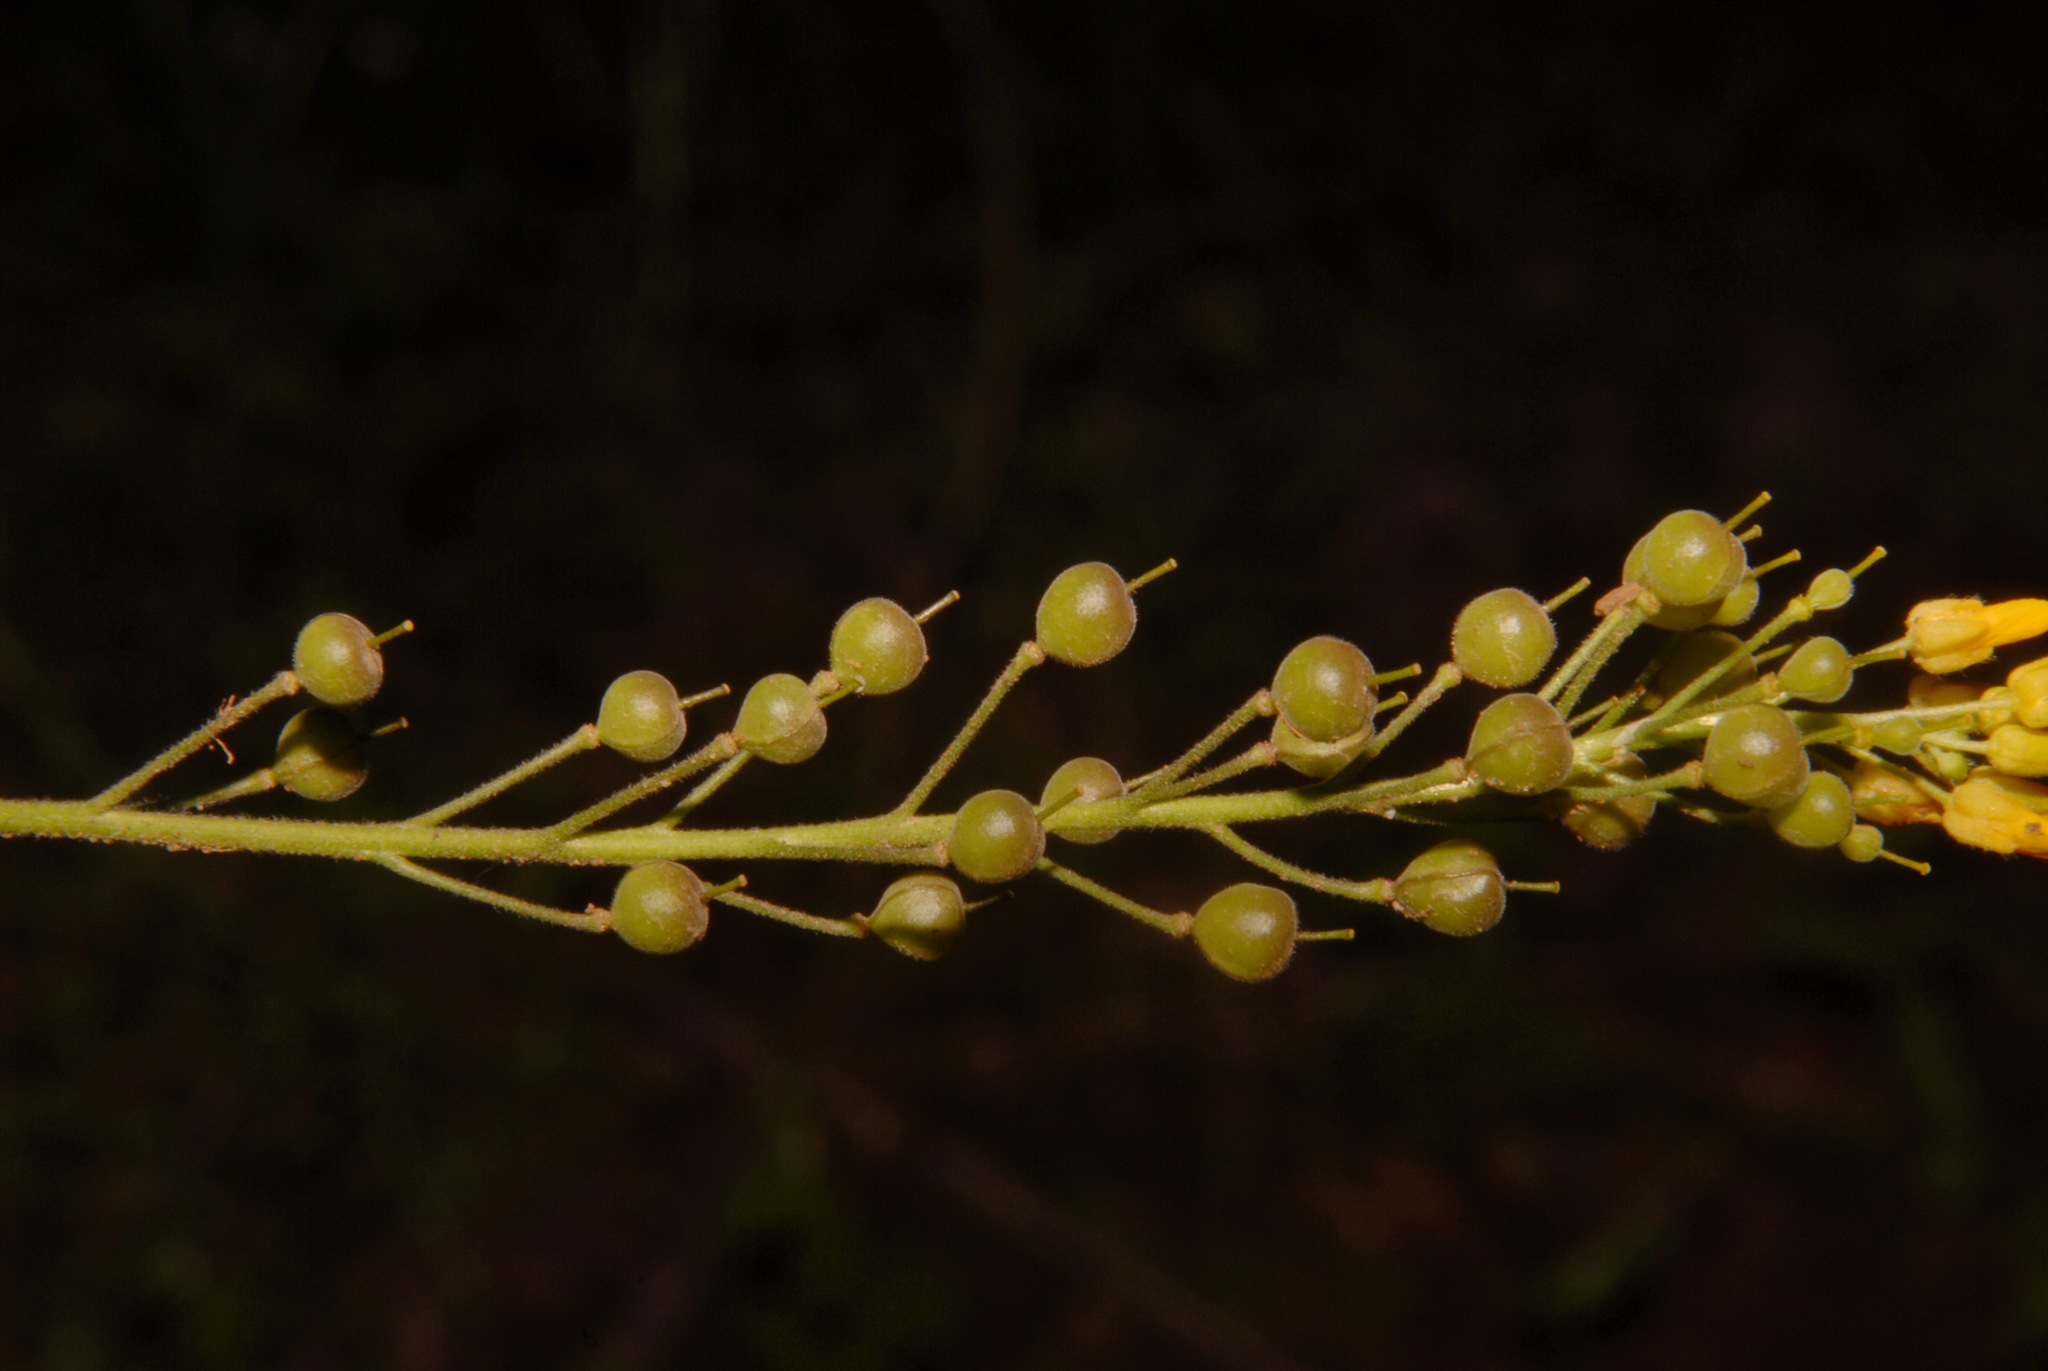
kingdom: Plantae
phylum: Tracheophyta
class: Magnoliopsida
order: Brassicales
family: Brassicaceae
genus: Paysonia
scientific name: Paysonia densipila
